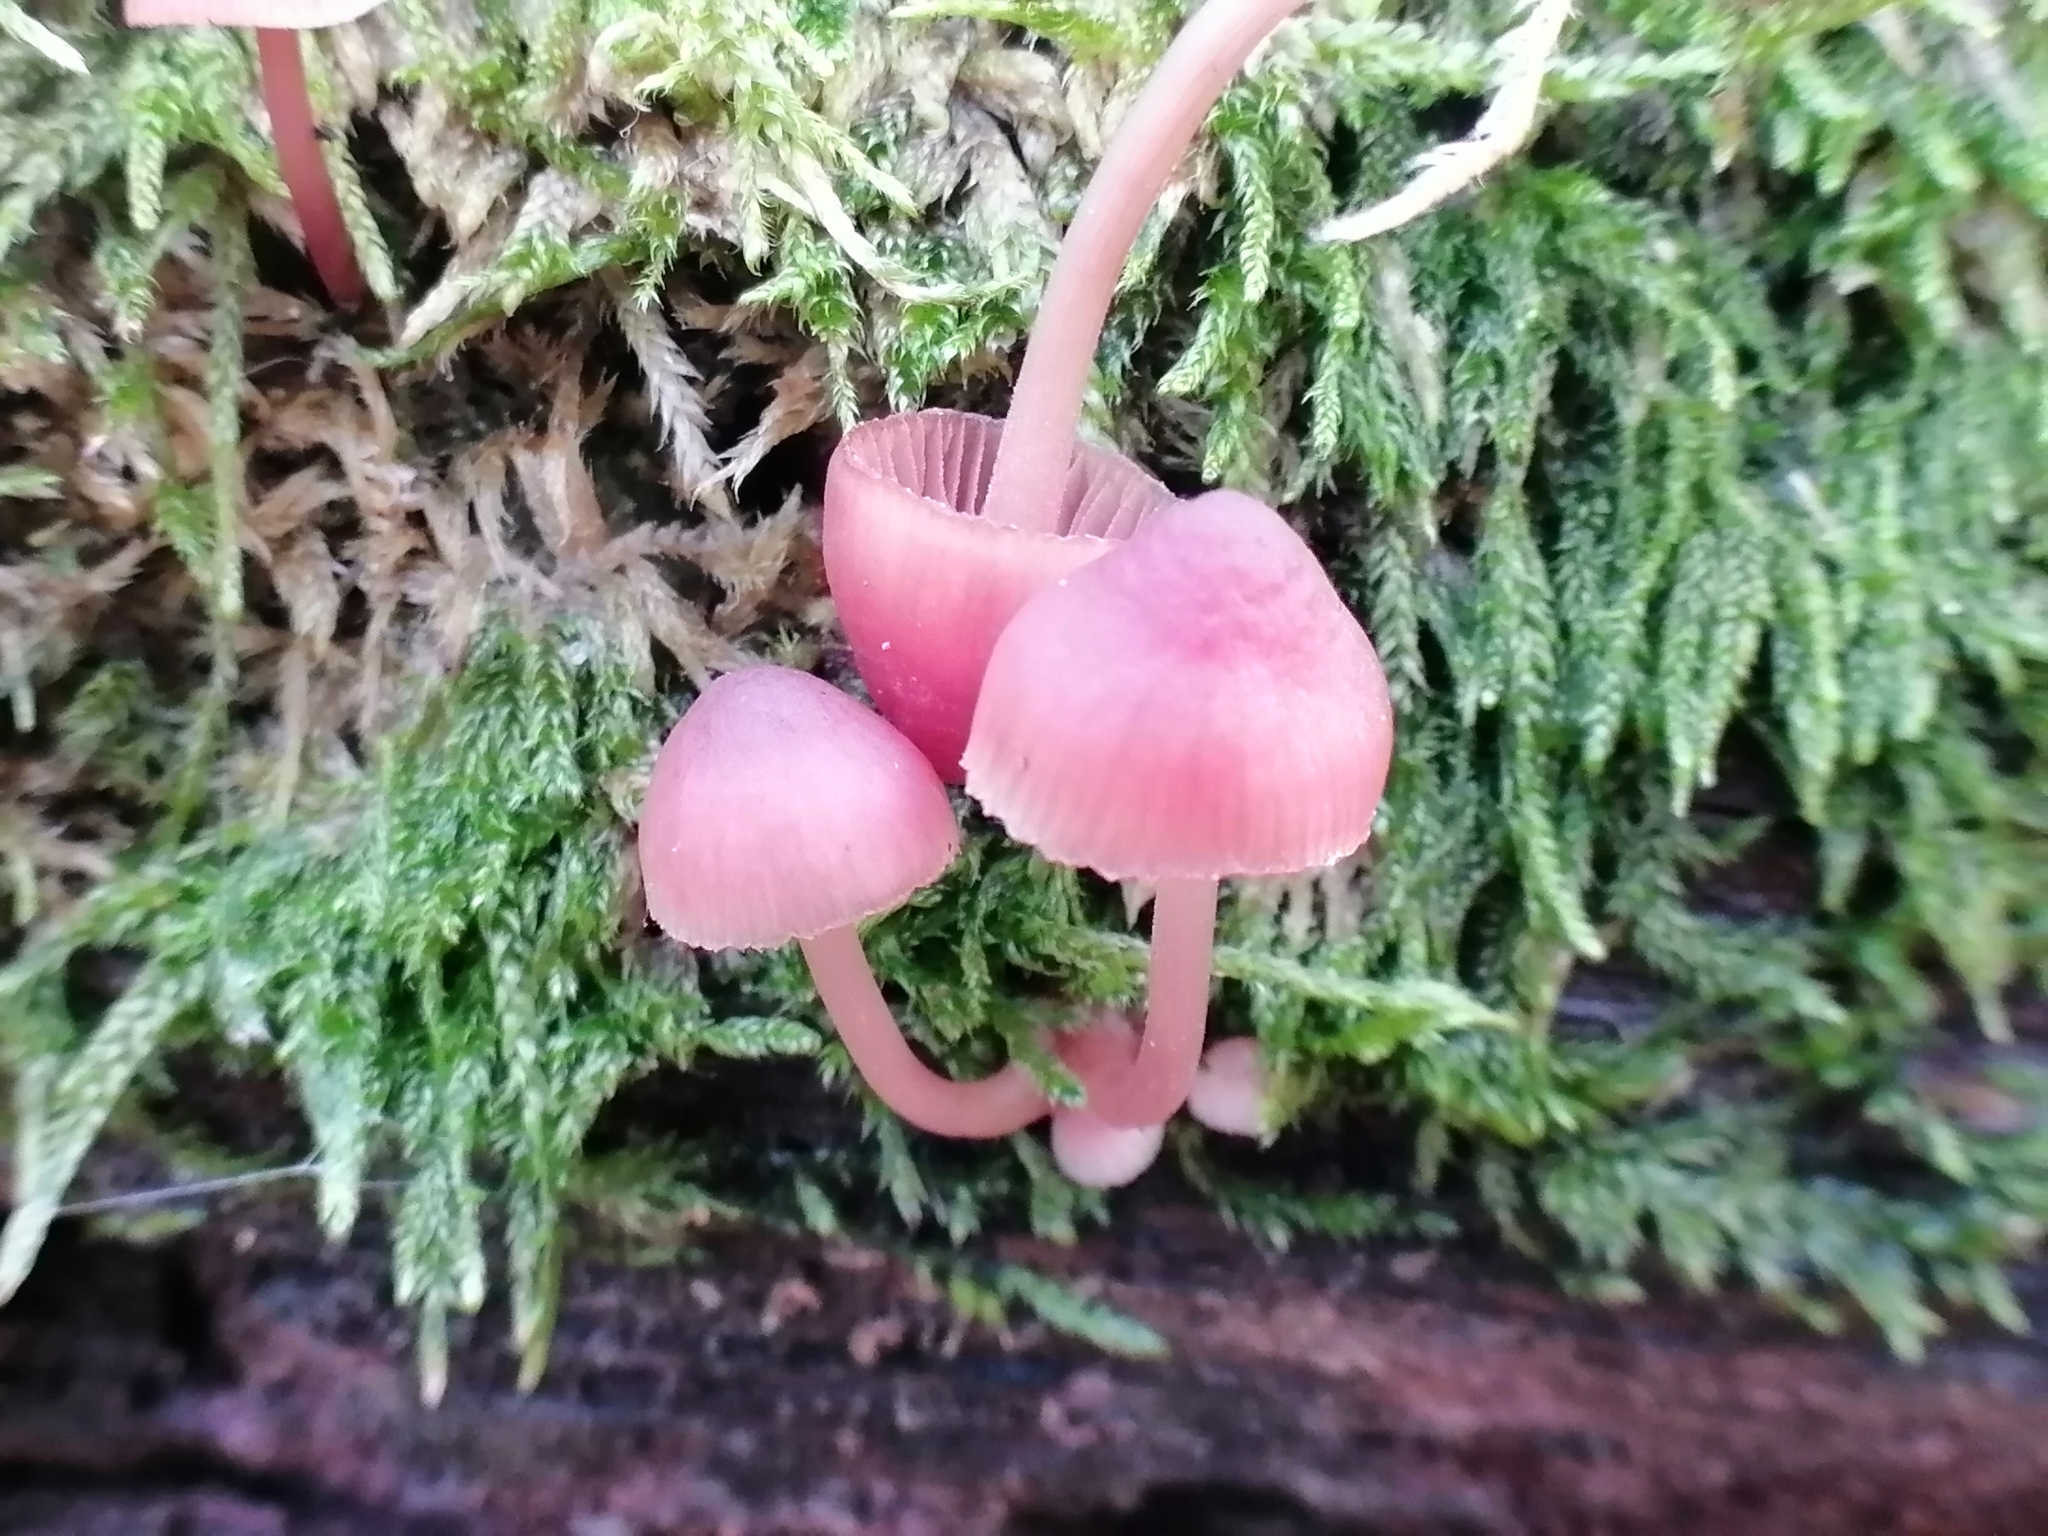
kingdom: Fungi
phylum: Basidiomycota
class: Agaricomycetes
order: Agaricales
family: Mycenaceae
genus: Mycena
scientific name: Mycena haematopus
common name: Burgundydrop bonnet
